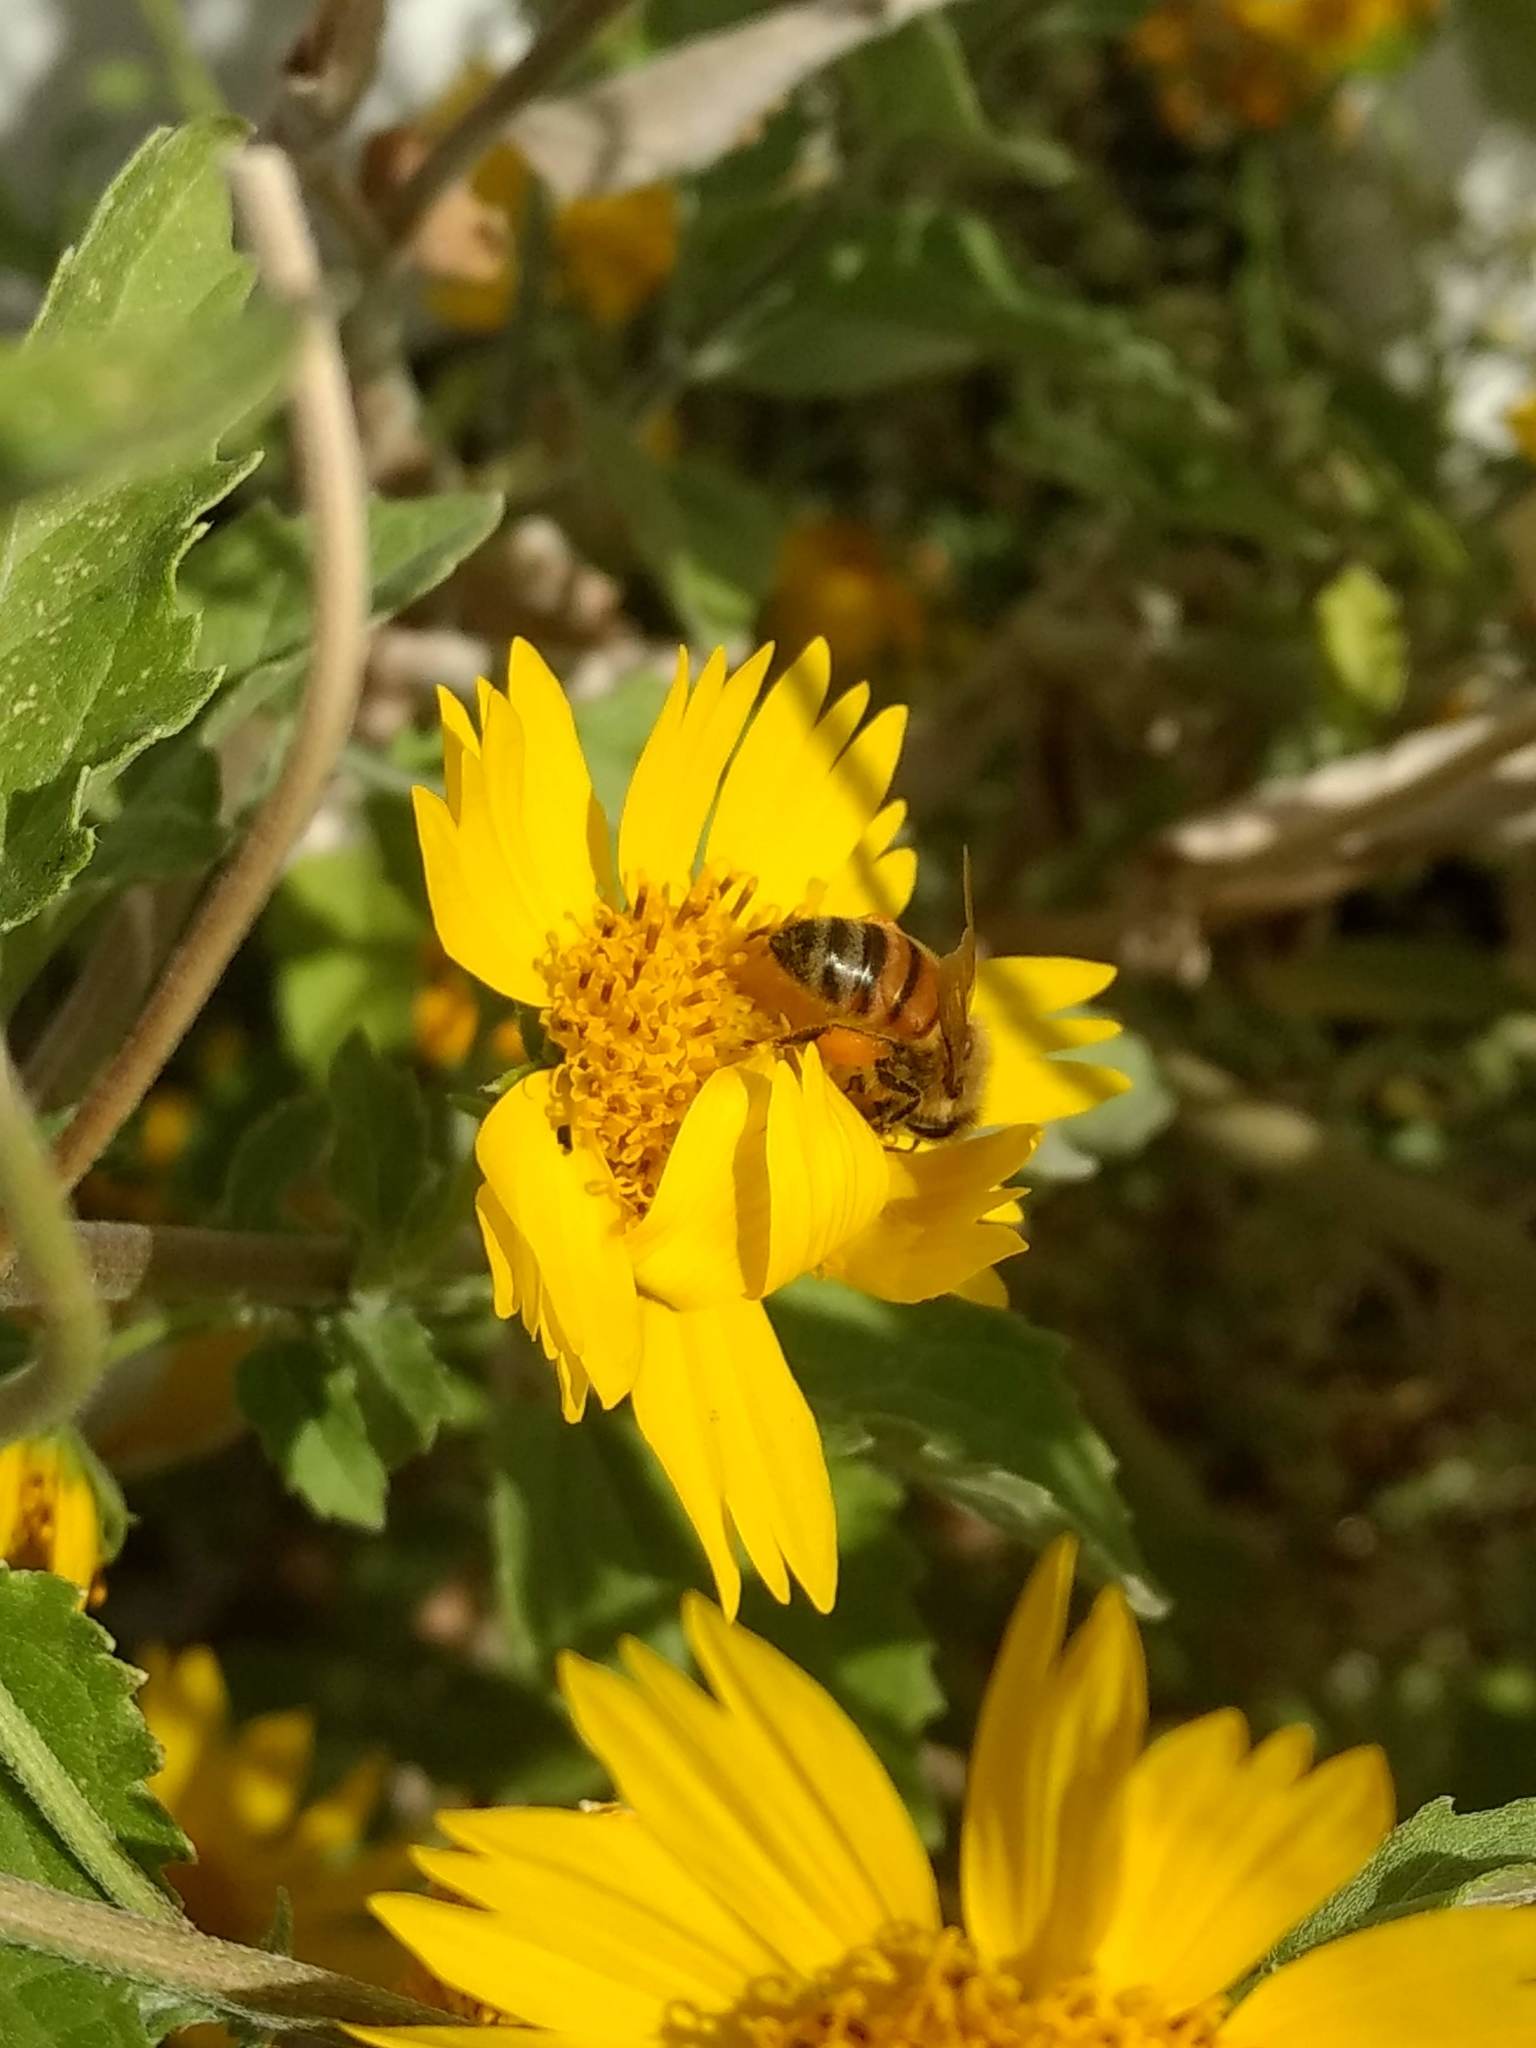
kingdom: Animalia
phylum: Arthropoda
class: Insecta
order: Hymenoptera
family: Apidae
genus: Apis
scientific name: Apis mellifera
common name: Honey bee
